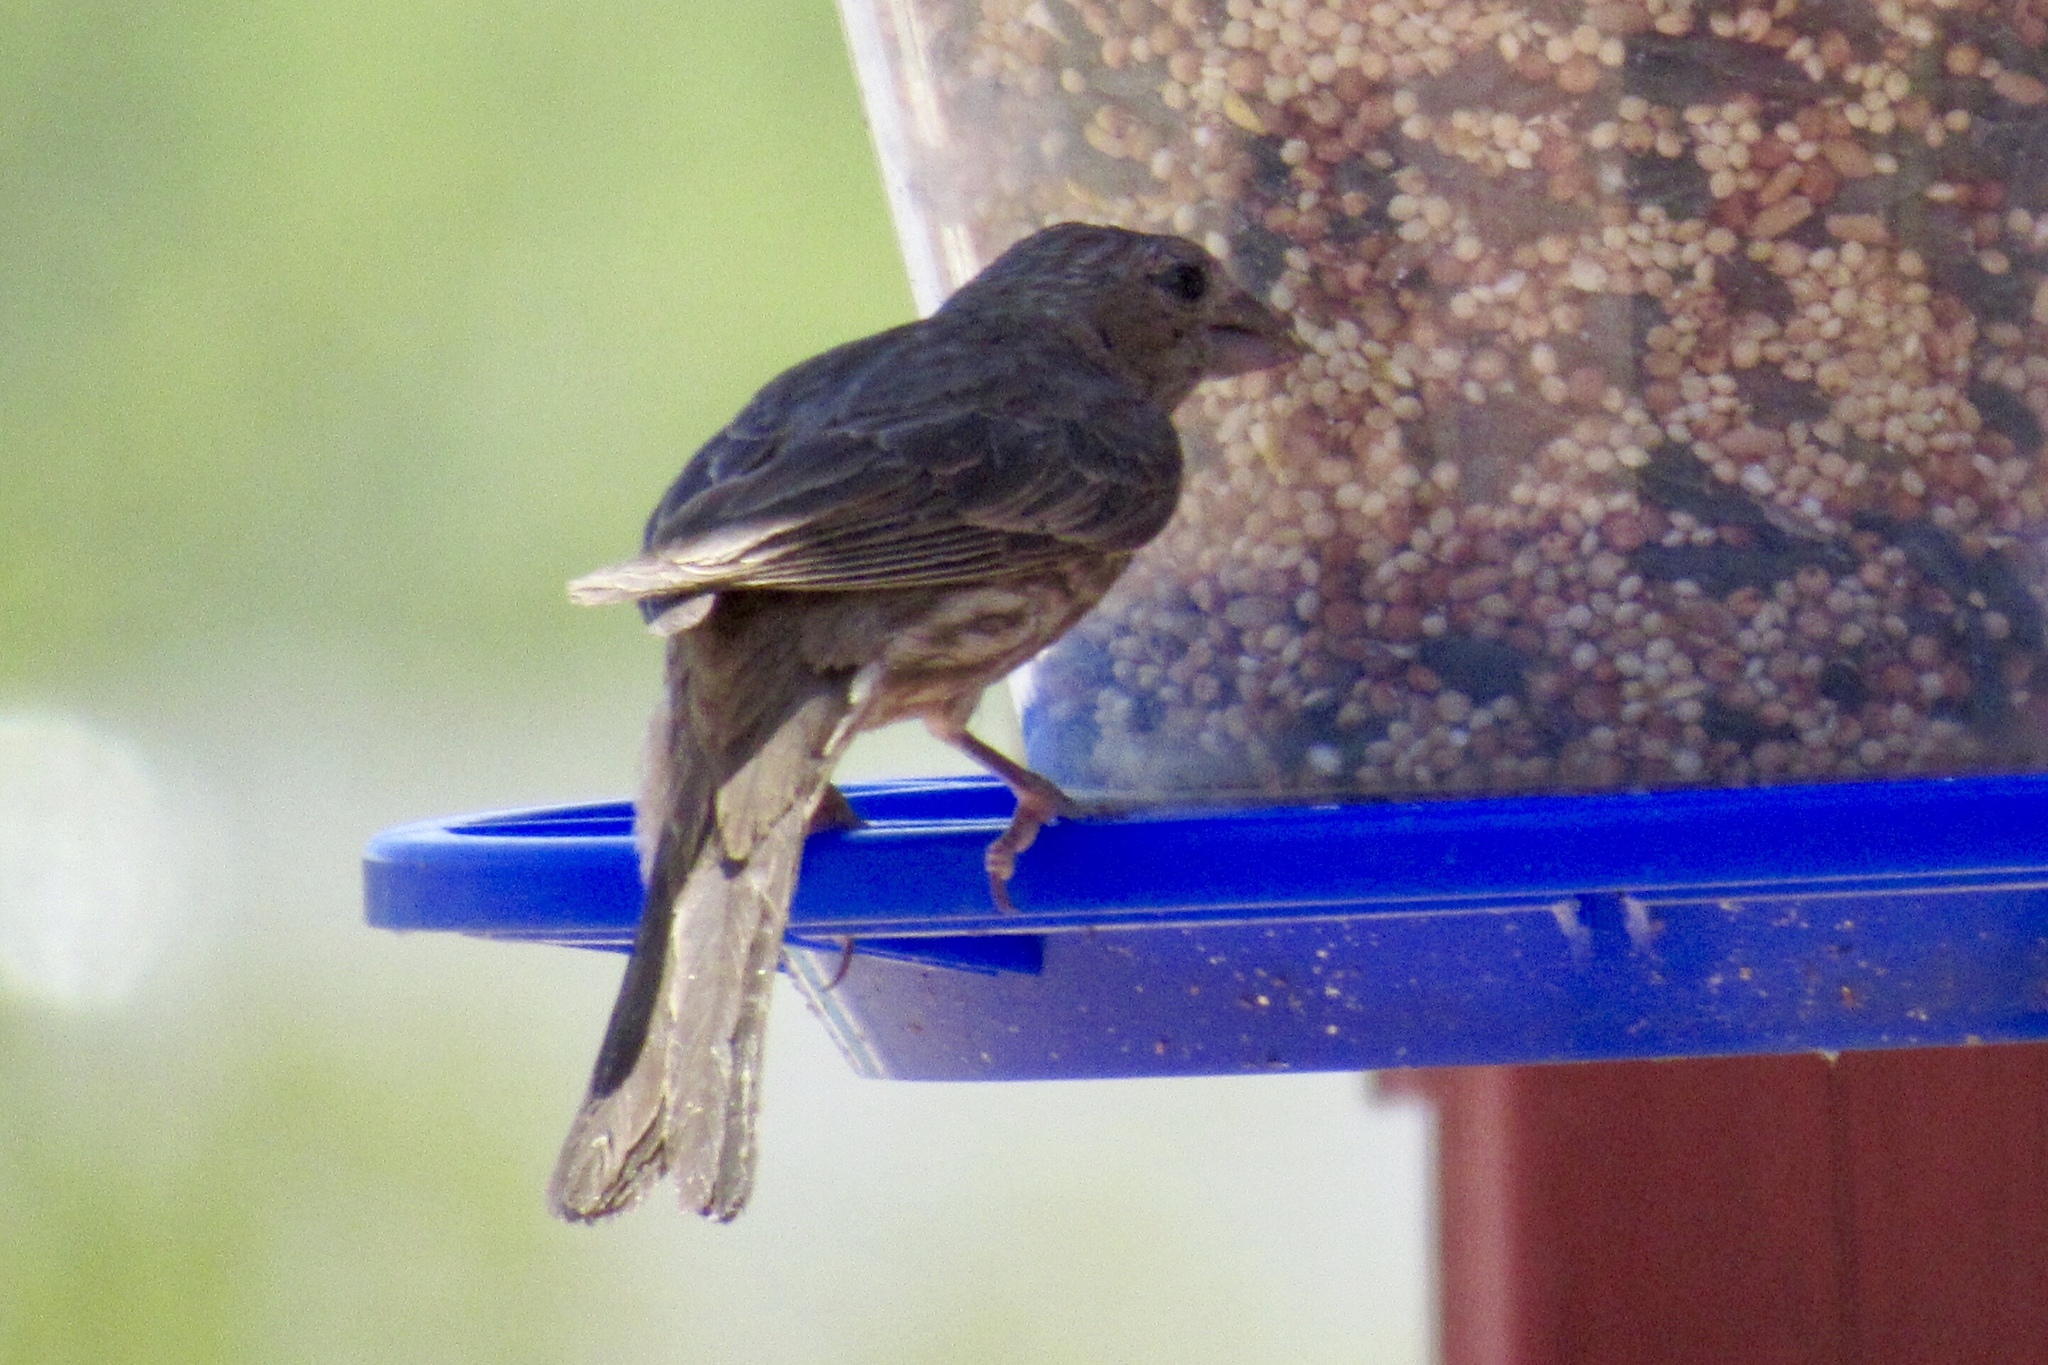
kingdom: Animalia
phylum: Chordata
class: Aves
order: Passeriformes
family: Fringillidae
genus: Haemorhous
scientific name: Haemorhous mexicanus
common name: House finch
